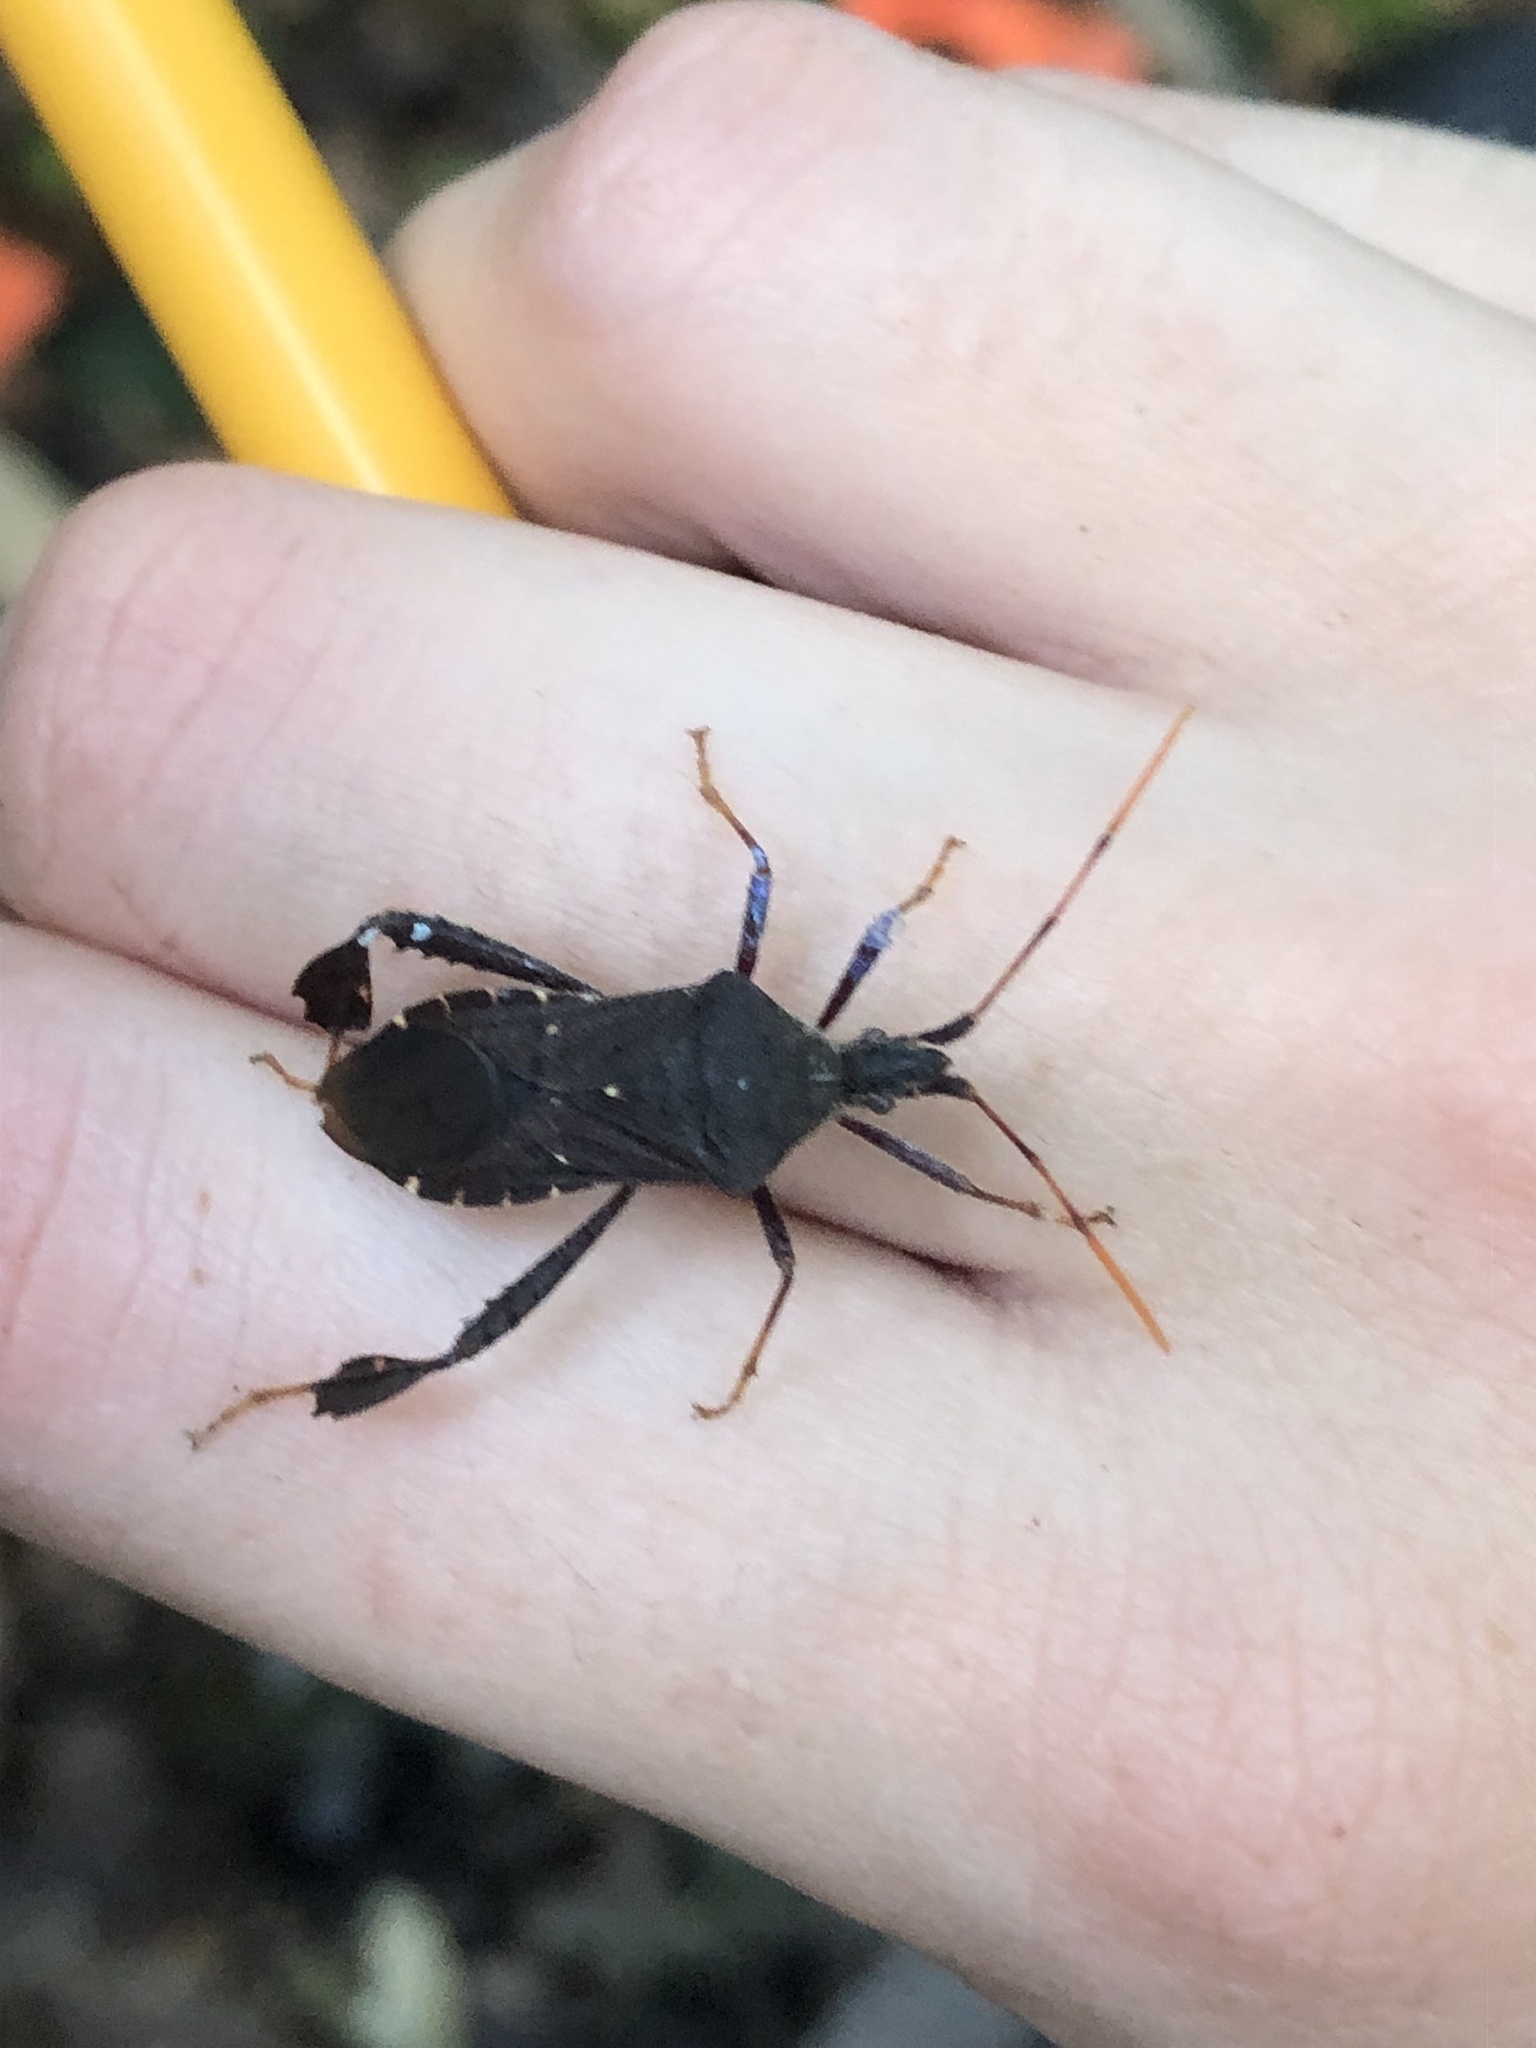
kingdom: Animalia
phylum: Arthropoda
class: Insecta
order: Hemiptera
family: Coreidae
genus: Leptoglossus
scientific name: Leptoglossus oppositus
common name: Northern leaf-footed bug
